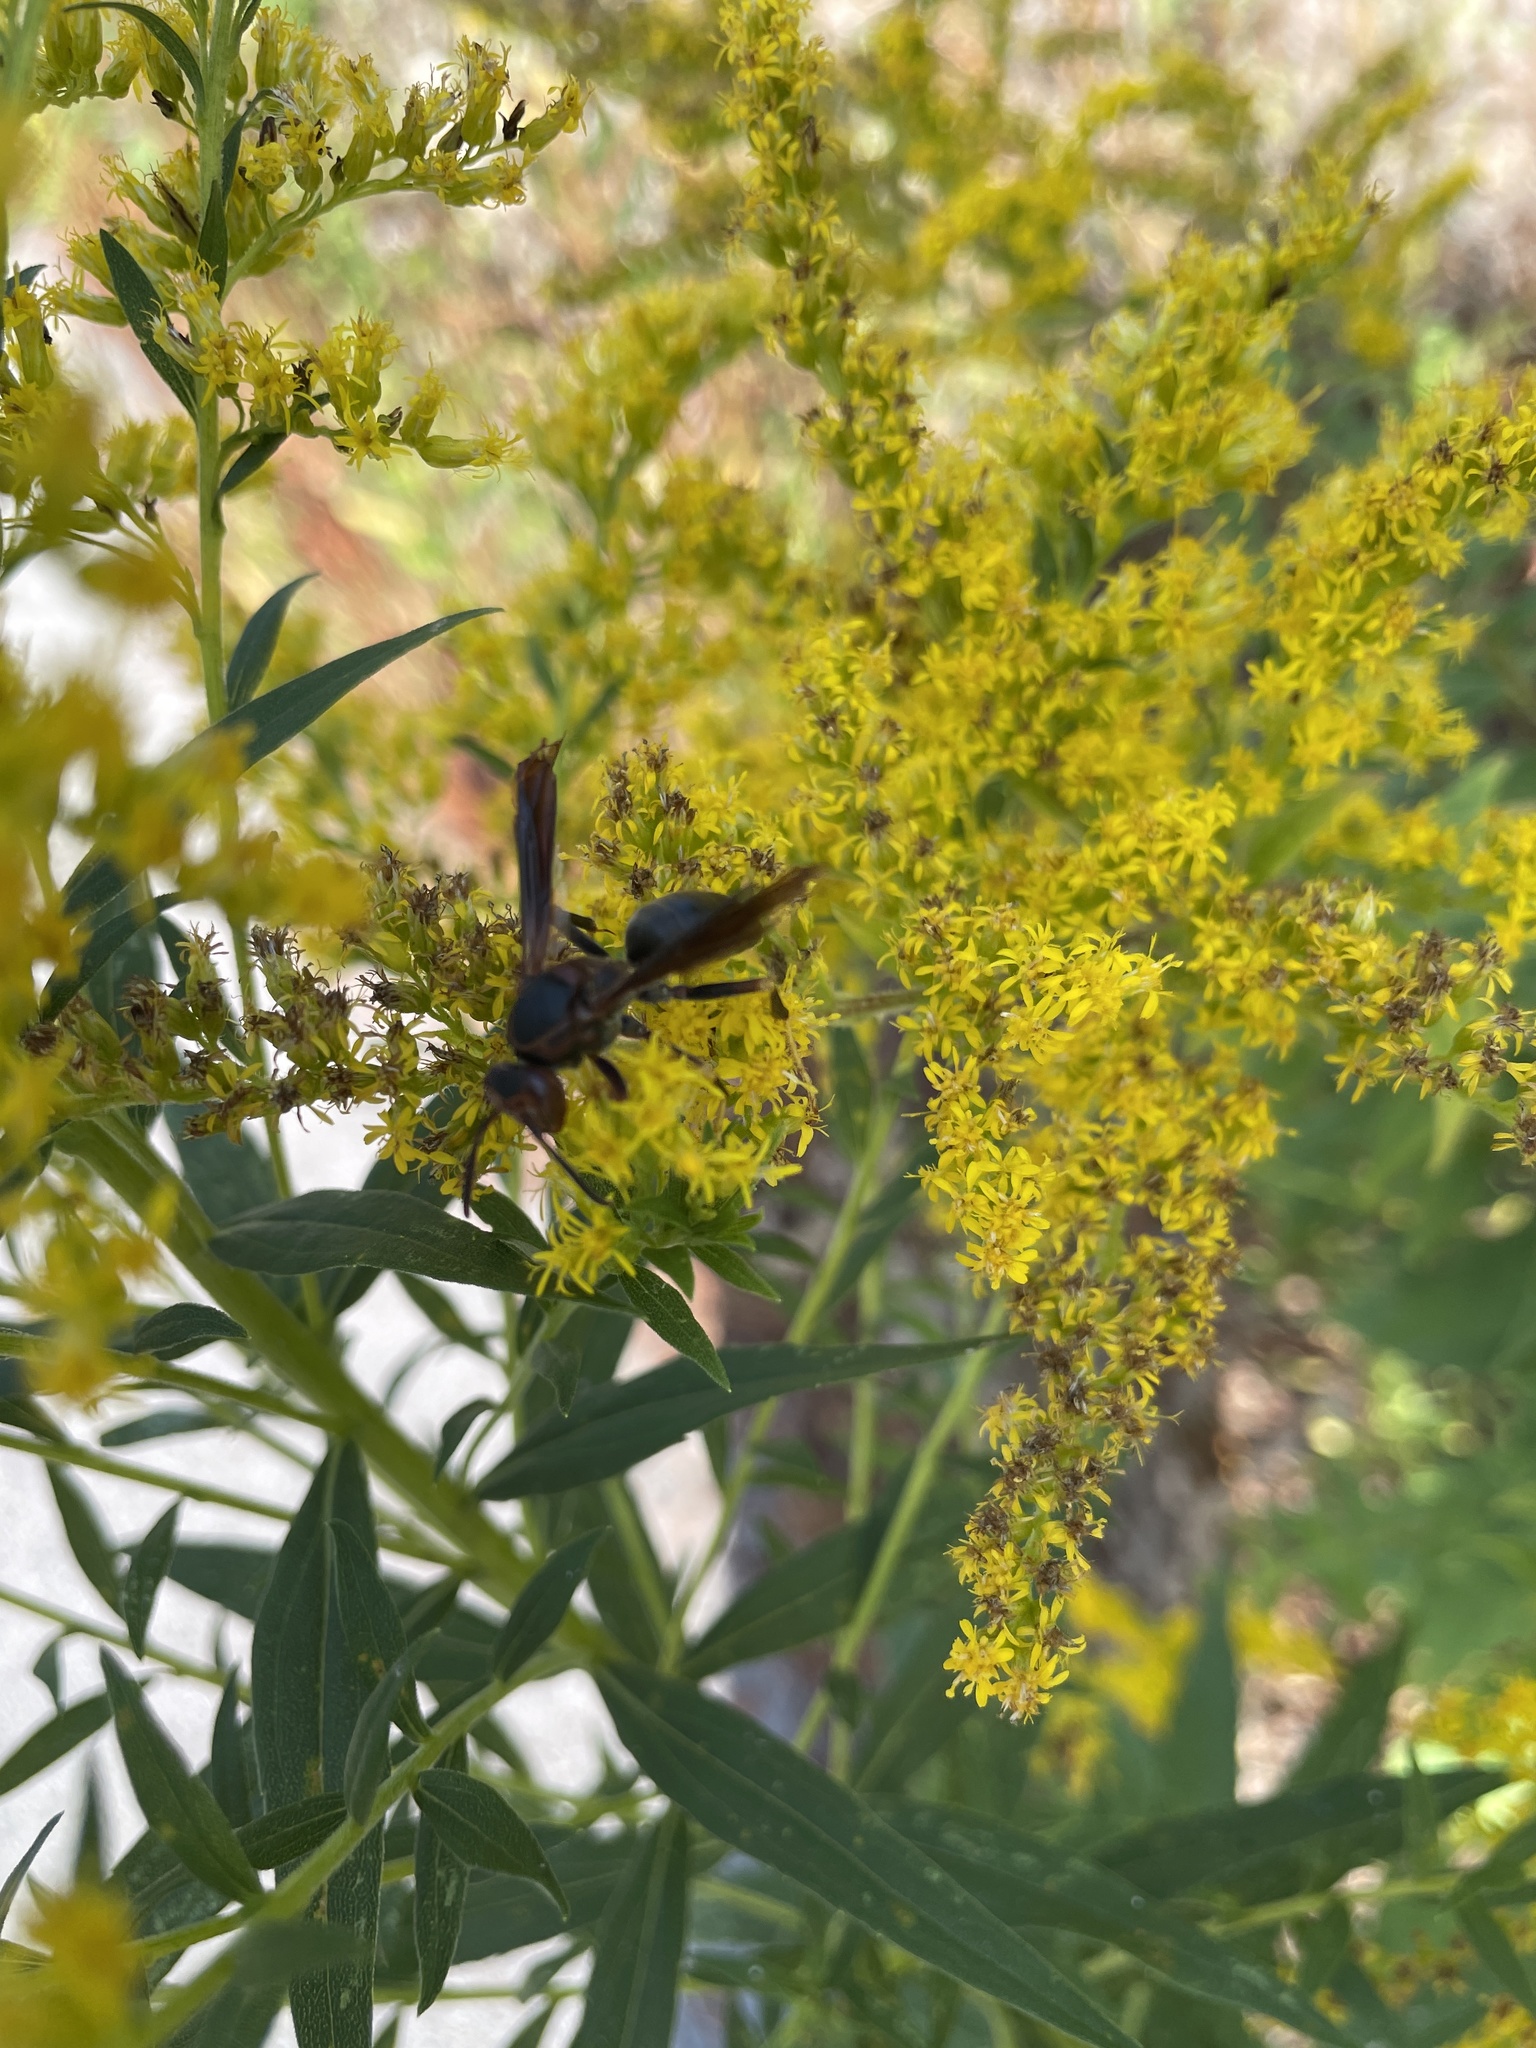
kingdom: Animalia
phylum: Arthropoda
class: Insecta
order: Hymenoptera
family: Vespidae
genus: Fuscopolistes
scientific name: Fuscopolistes
